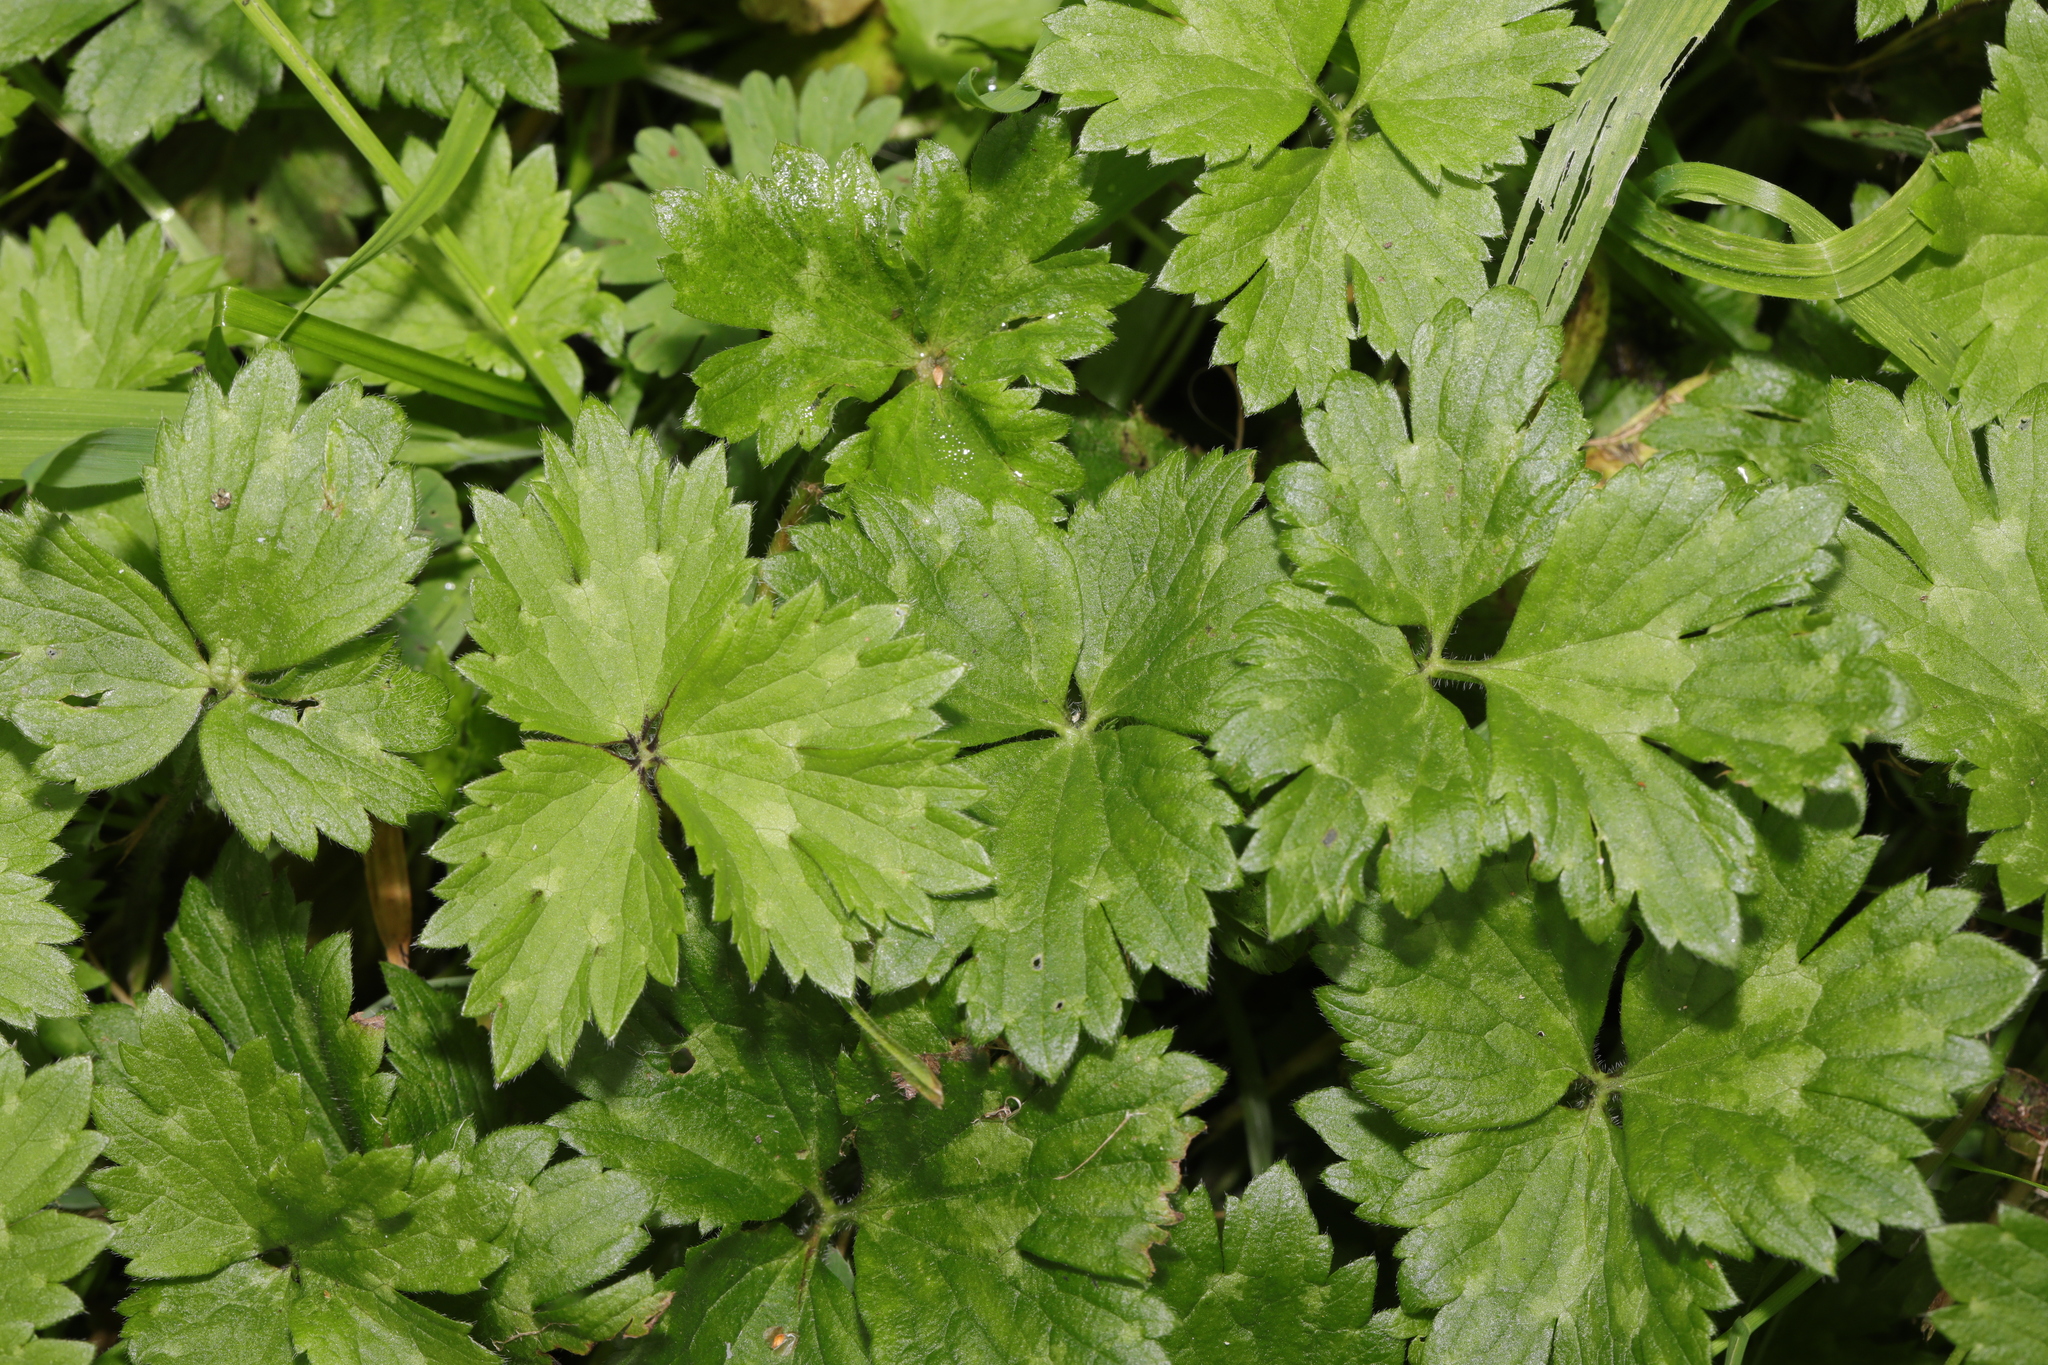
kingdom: Plantae
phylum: Tracheophyta
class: Magnoliopsida
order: Ranunculales
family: Ranunculaceae
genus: Ranunculus
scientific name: Ranunculus repens
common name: Creeping buttercup
